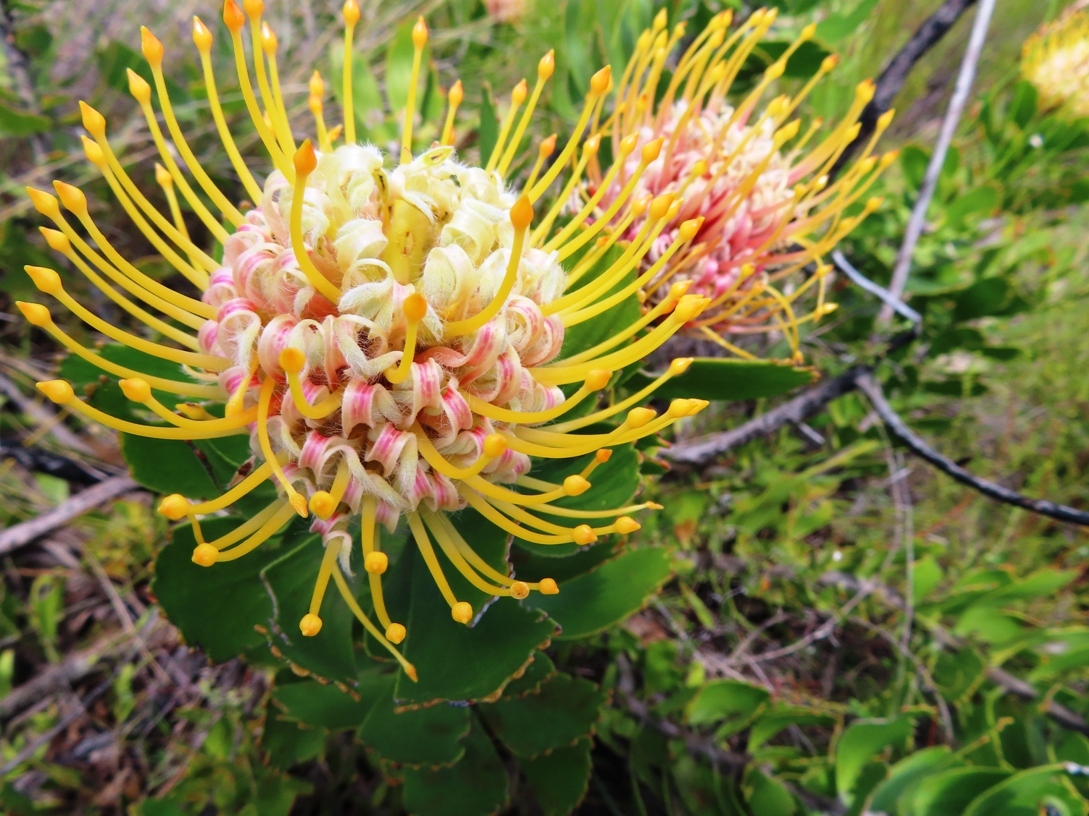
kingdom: Plantae
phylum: Tracheophyta
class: Magnoliopsida
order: Proteales
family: Proteaceae
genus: Leucospermum
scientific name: Leucospermum cuneiforme
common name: Common pincushion
